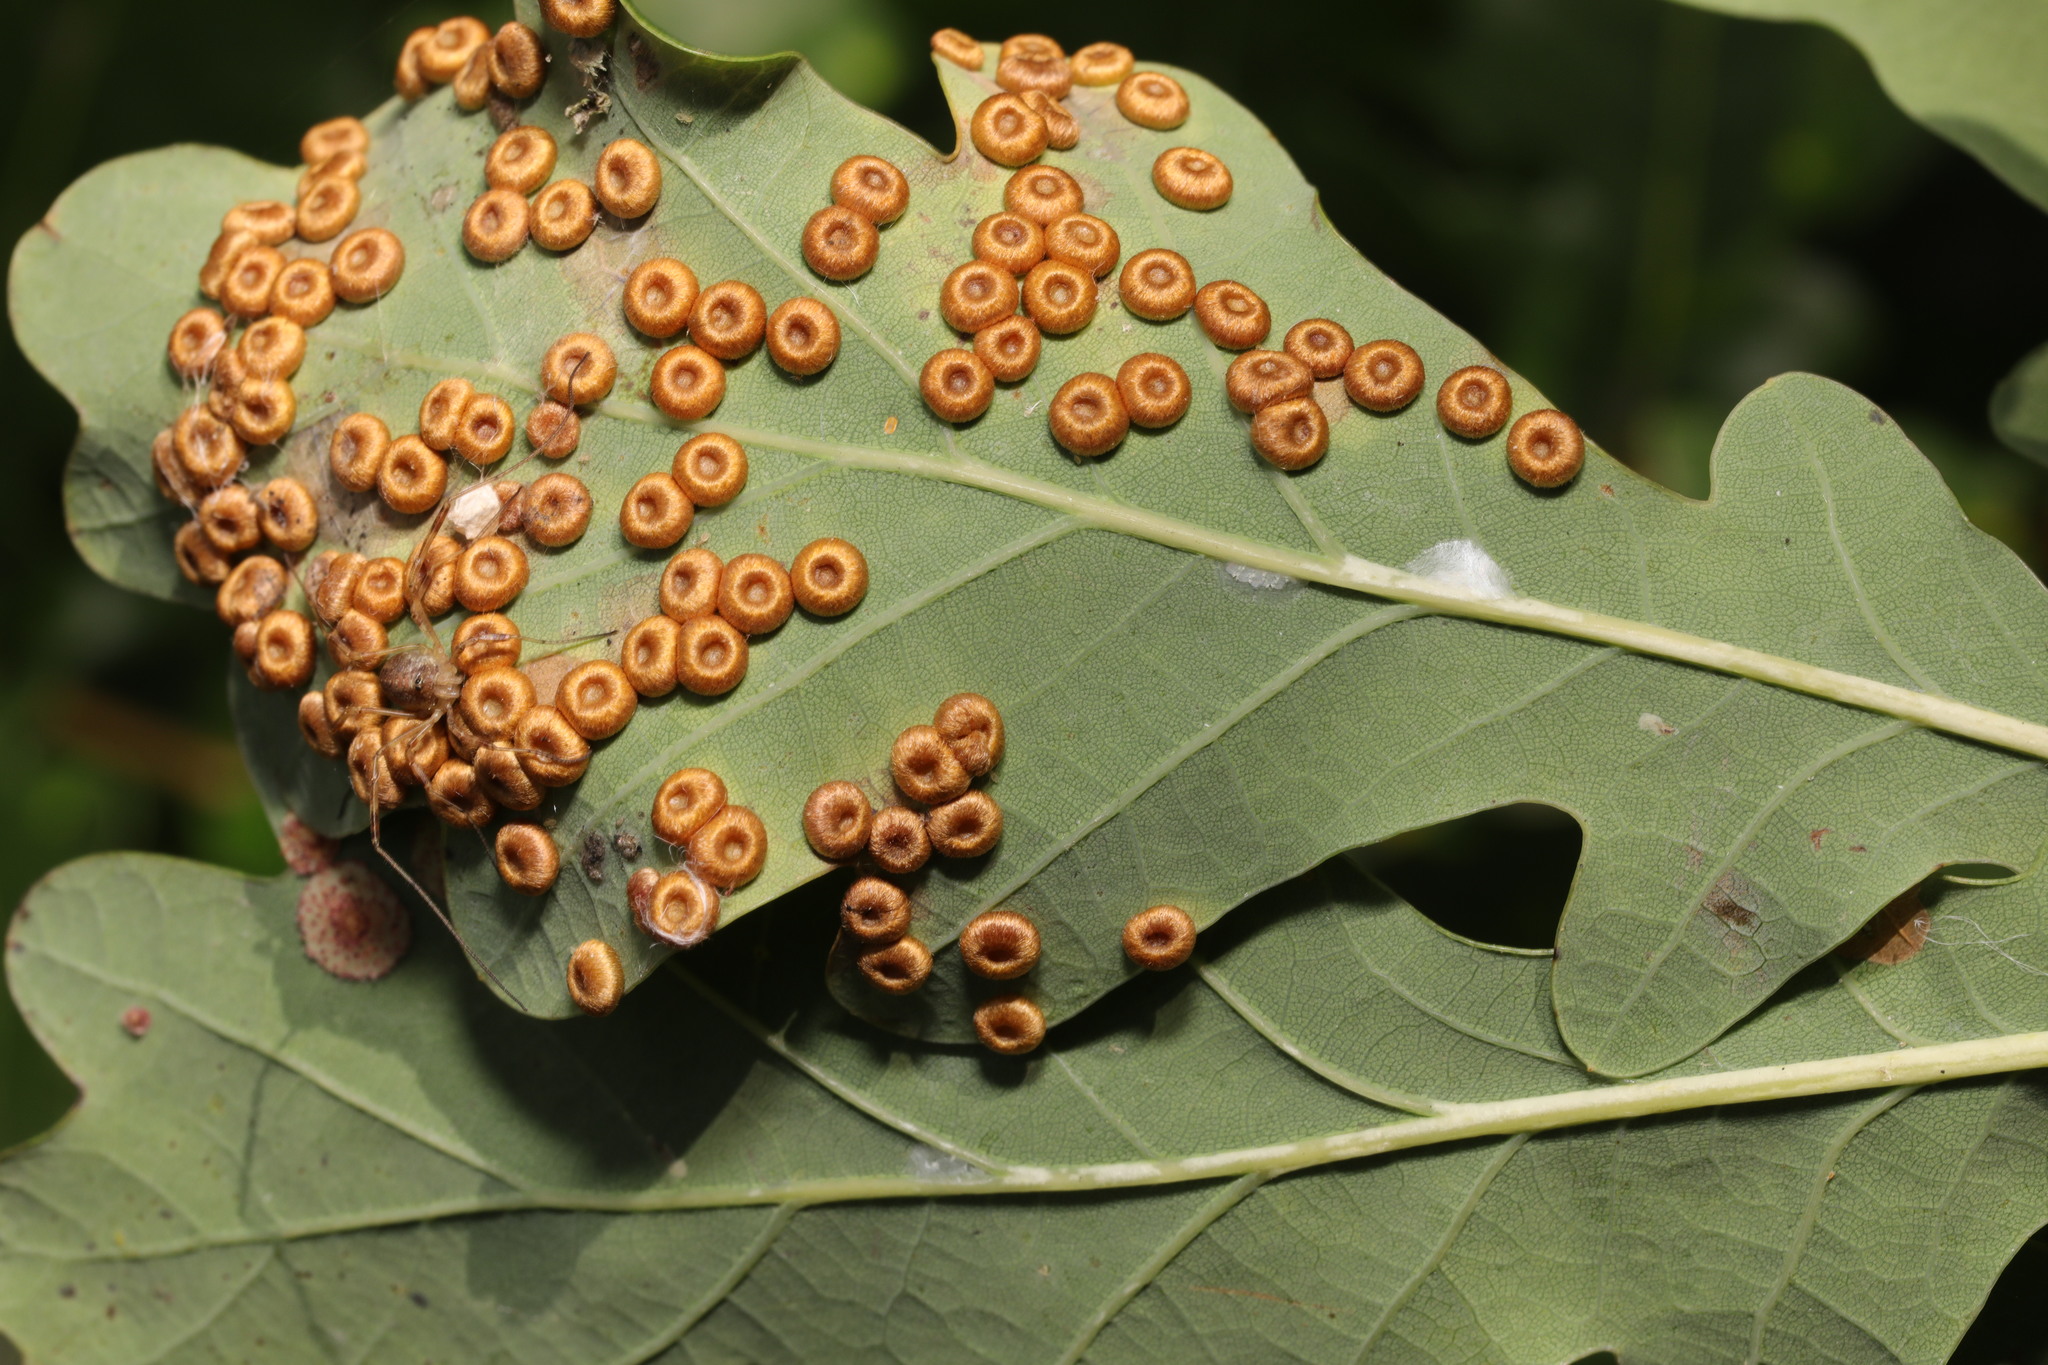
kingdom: Animalia
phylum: Arthropoda
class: Insecta
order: Hymenoptera
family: Cynipidae
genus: Neuroterus
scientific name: Neuroterus numismalis
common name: Silk-button spangle gall
